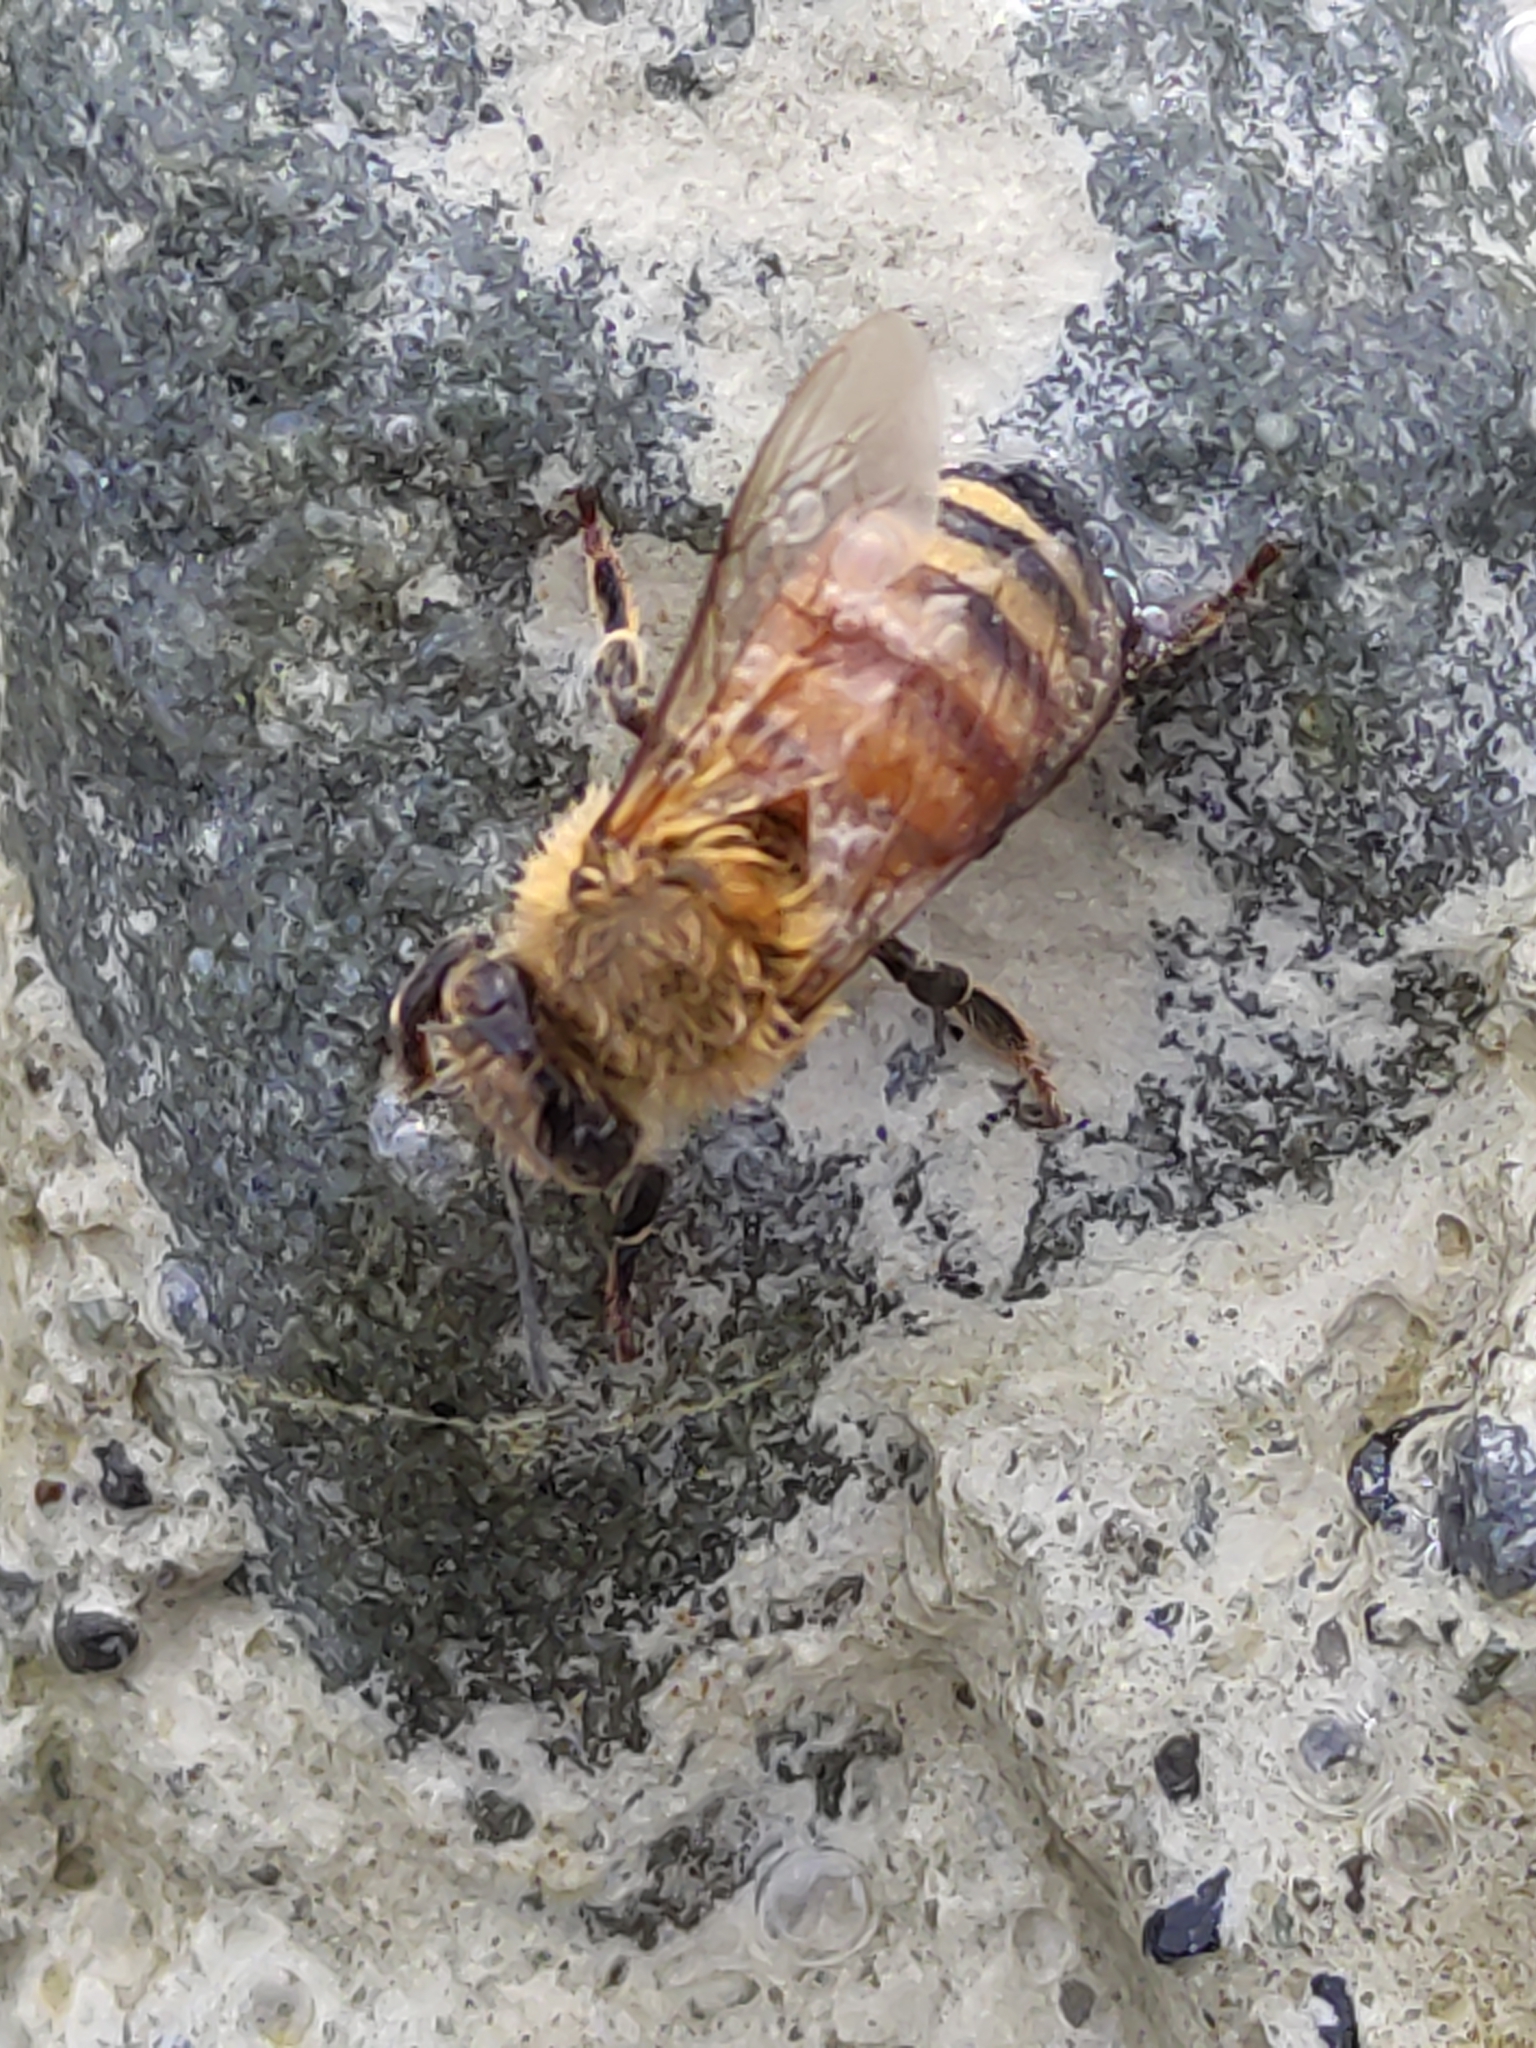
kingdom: Animalia
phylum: Arthropoda
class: Insecta
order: Hymenoptera
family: Apidae
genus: Apis
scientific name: Apis mellifera
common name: Honey bee
